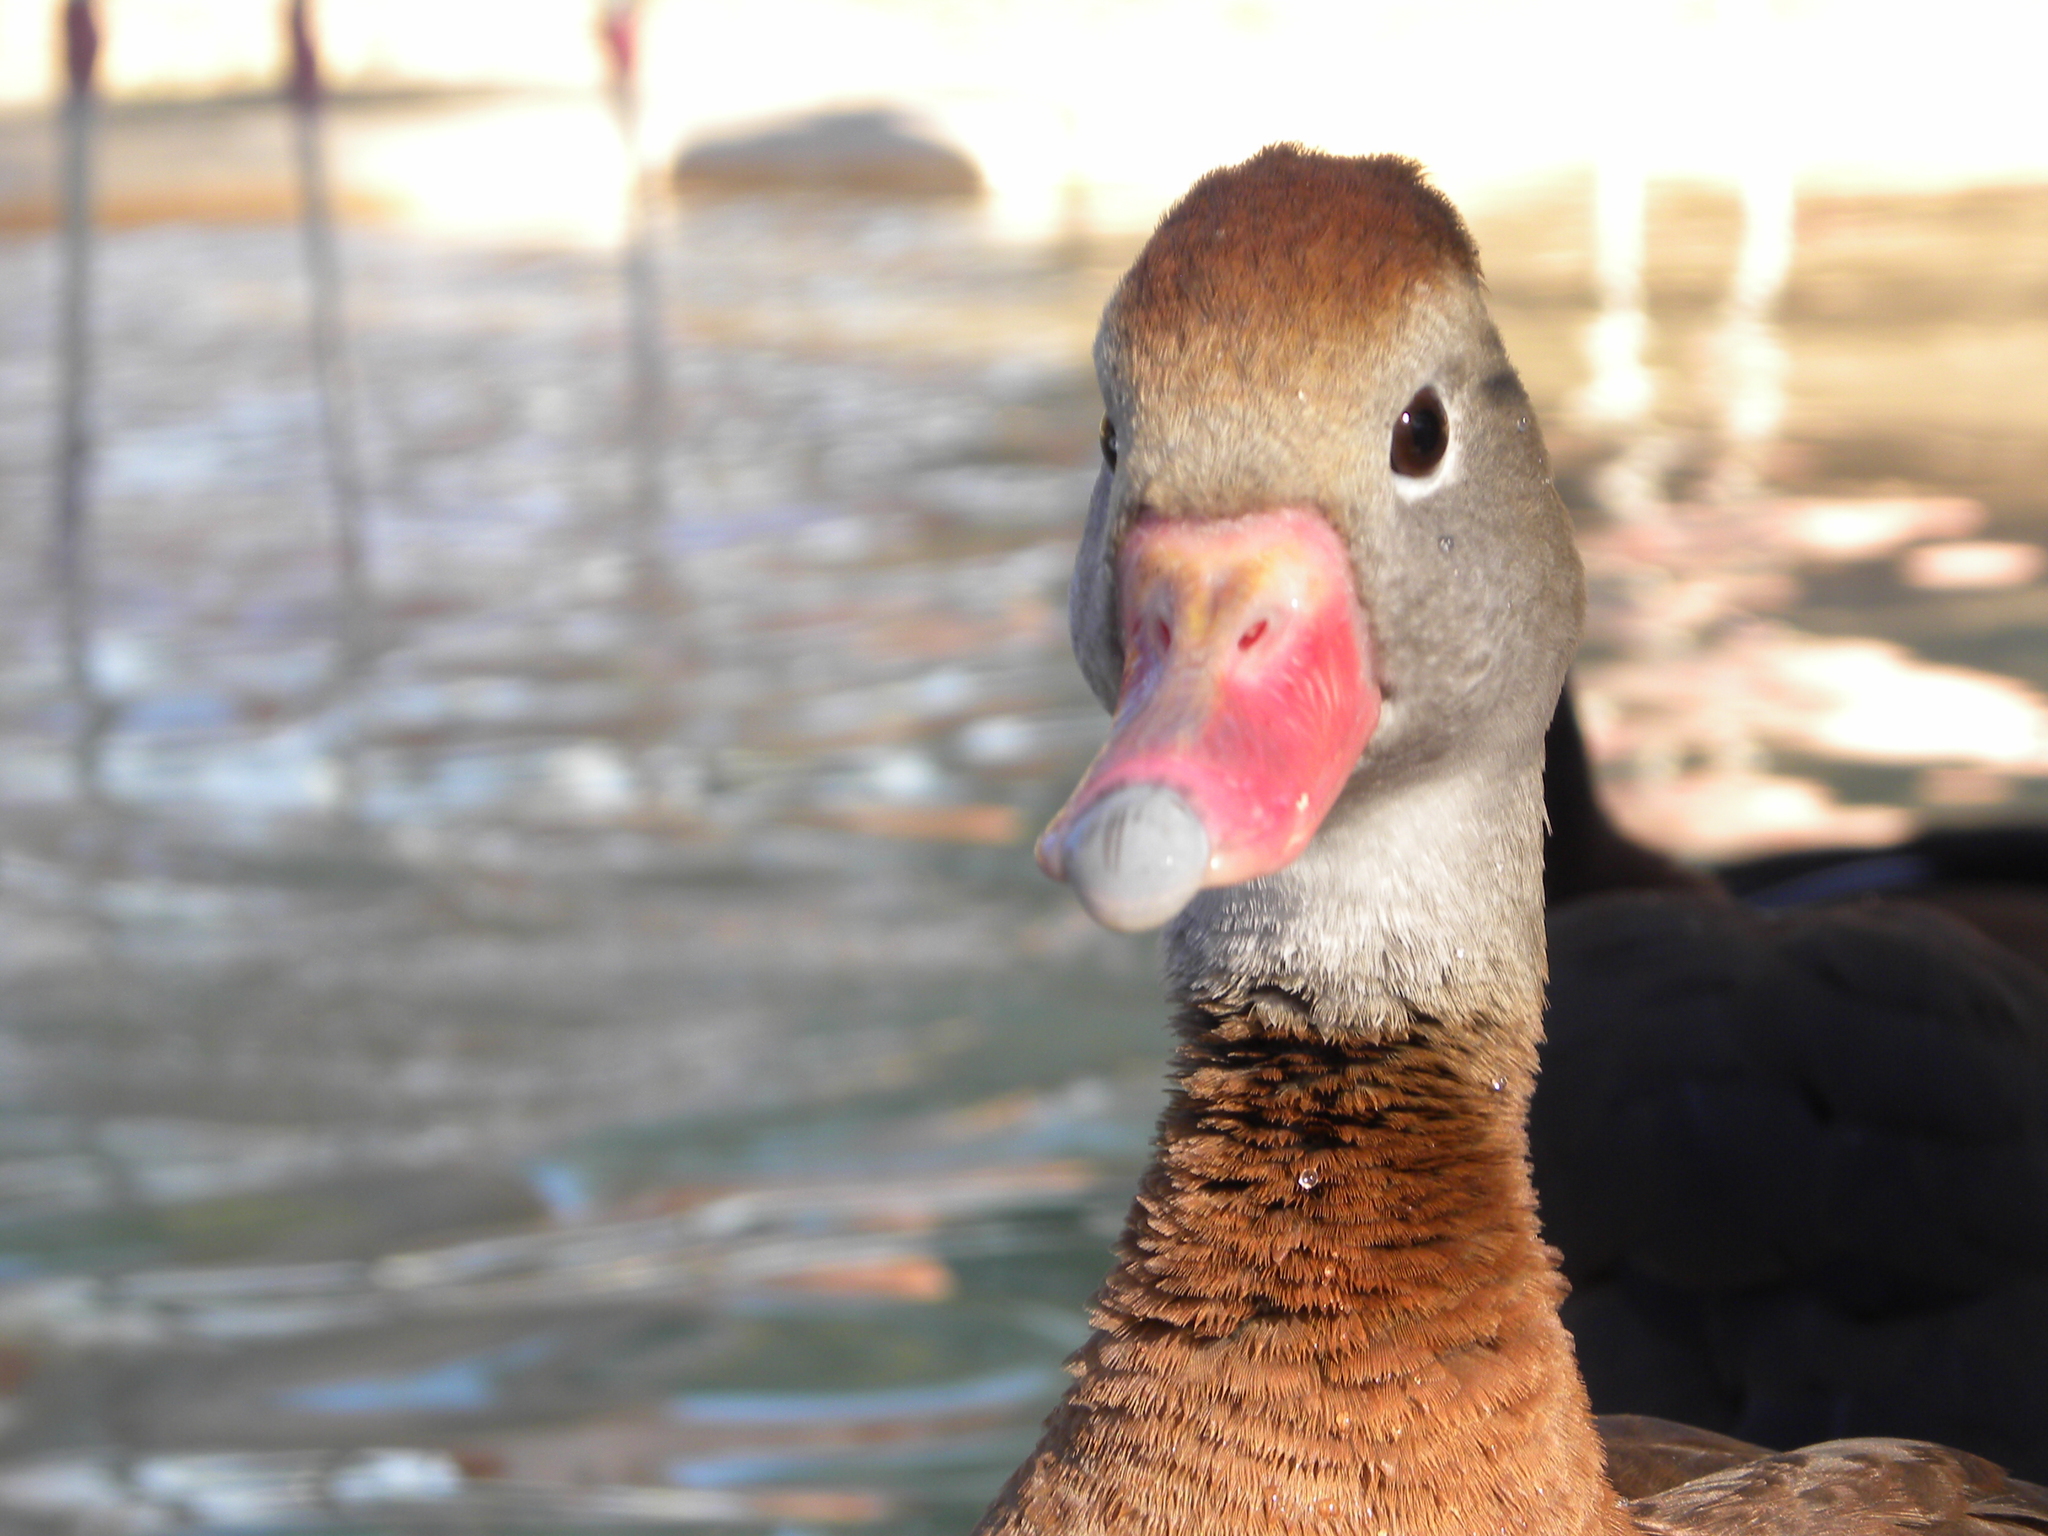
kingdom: Animalia
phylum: Chordata
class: Aves
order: Anseriformes
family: Anatidae
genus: Dendrocygna
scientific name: Dendrocygna autumnalis
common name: Black-bellied whistling duck
